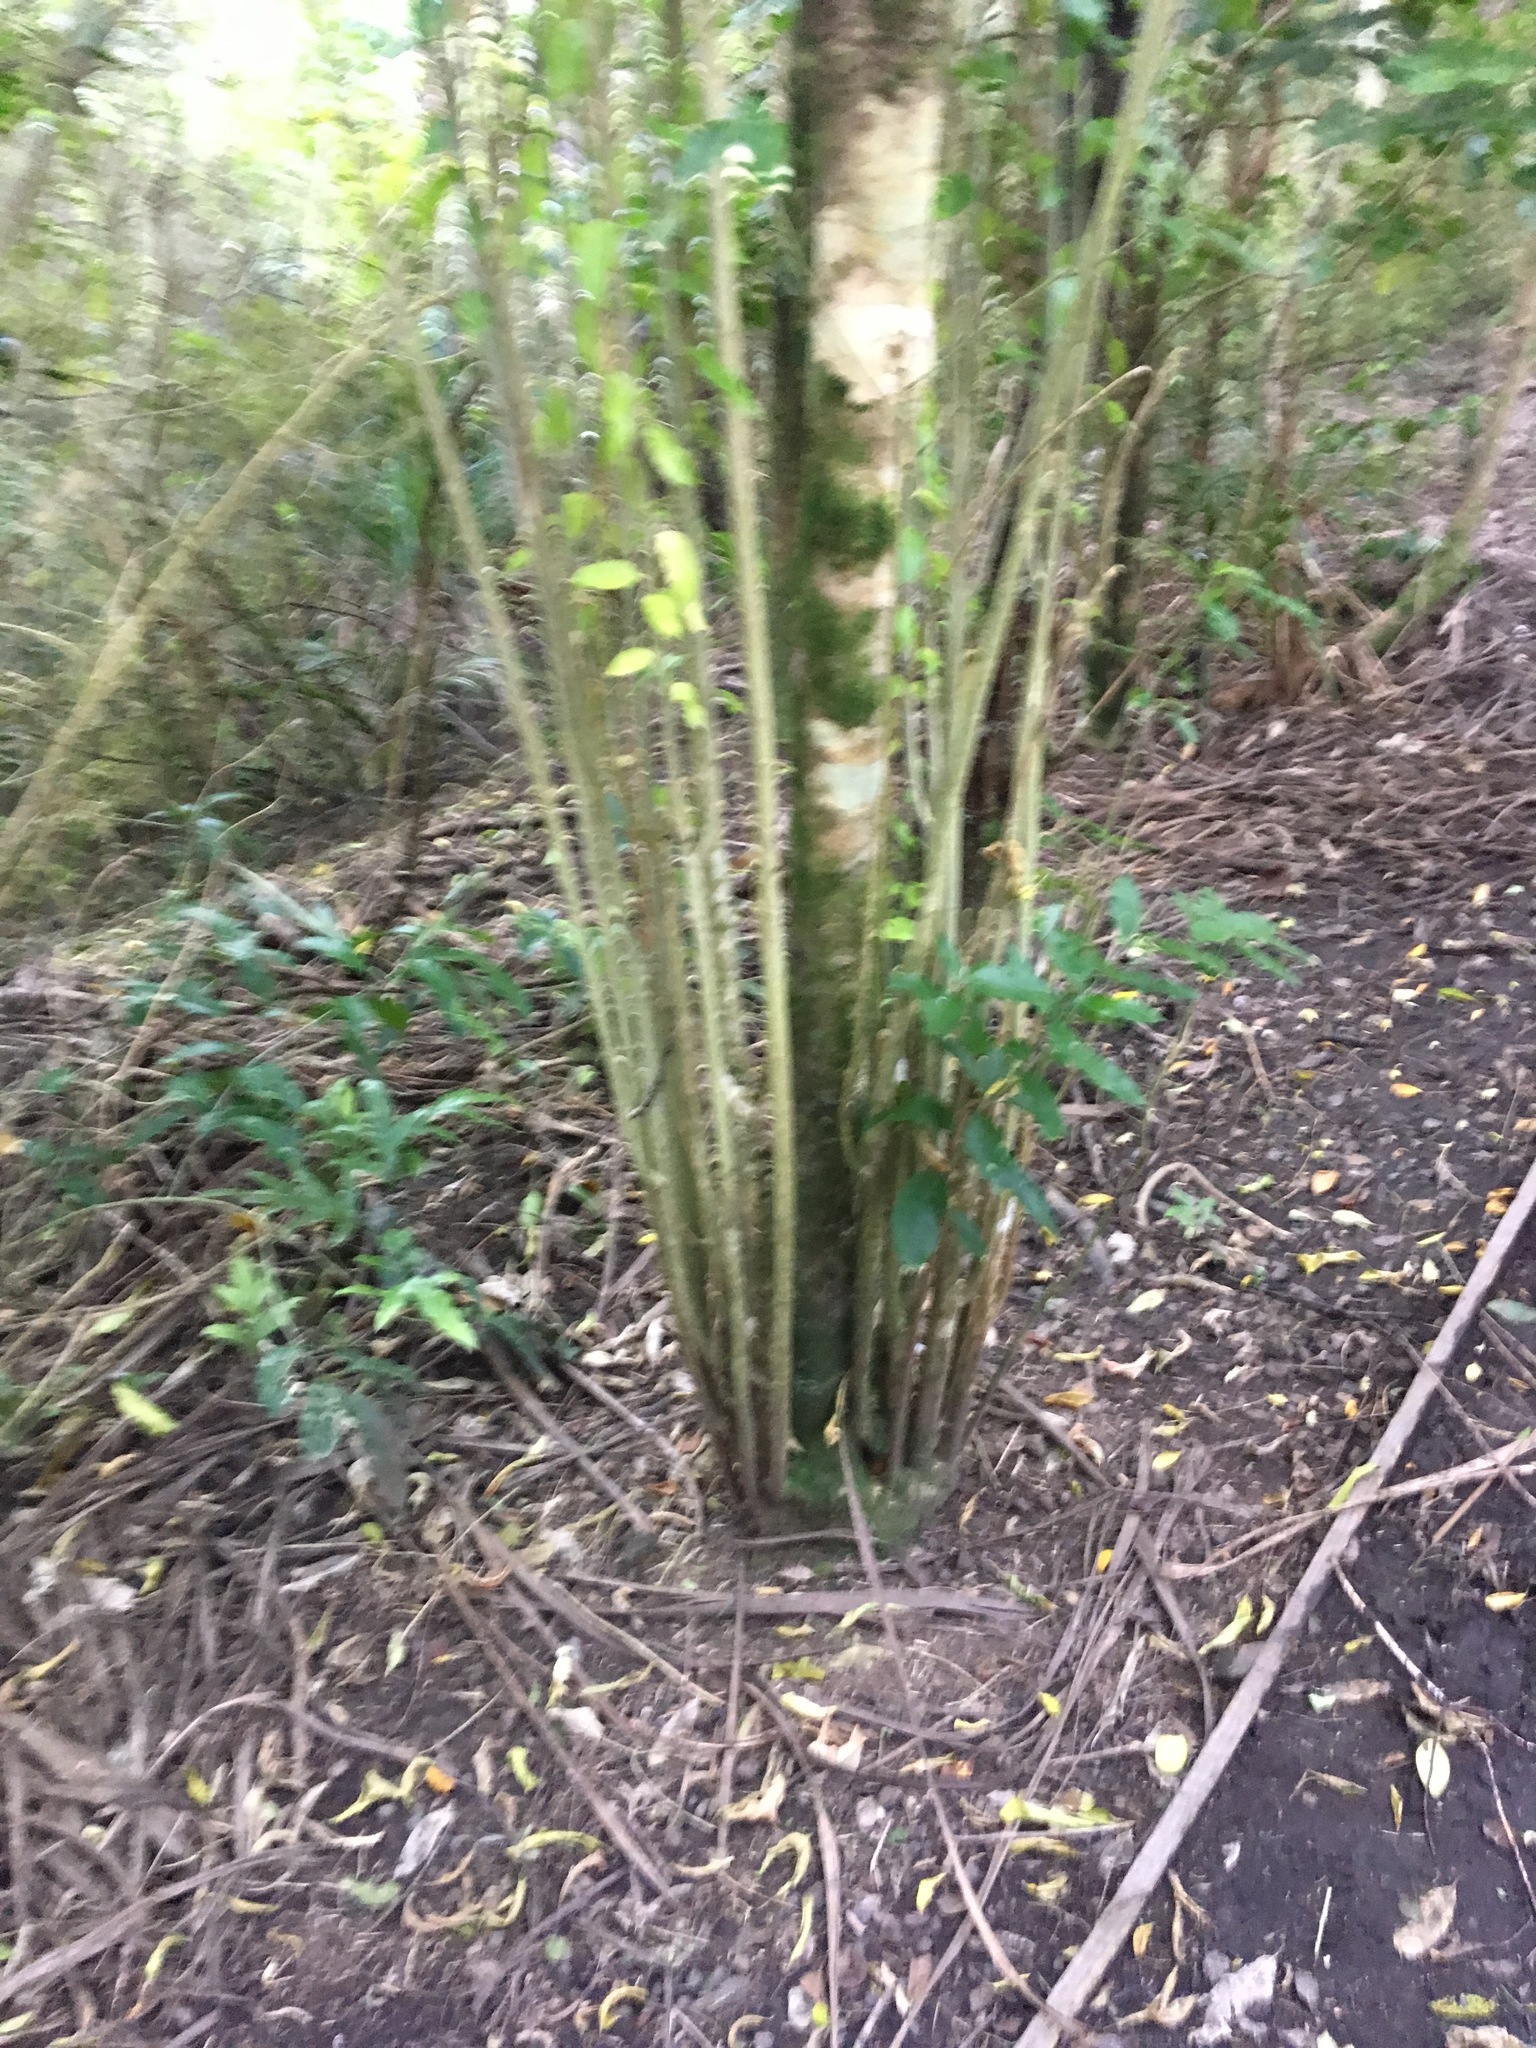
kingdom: Plantae
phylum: Tracheophyta
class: Magnoliopsida
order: Malpighiales
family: Violaceae
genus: Melicytus
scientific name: Melicytus ramiflorus
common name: Mahoe
